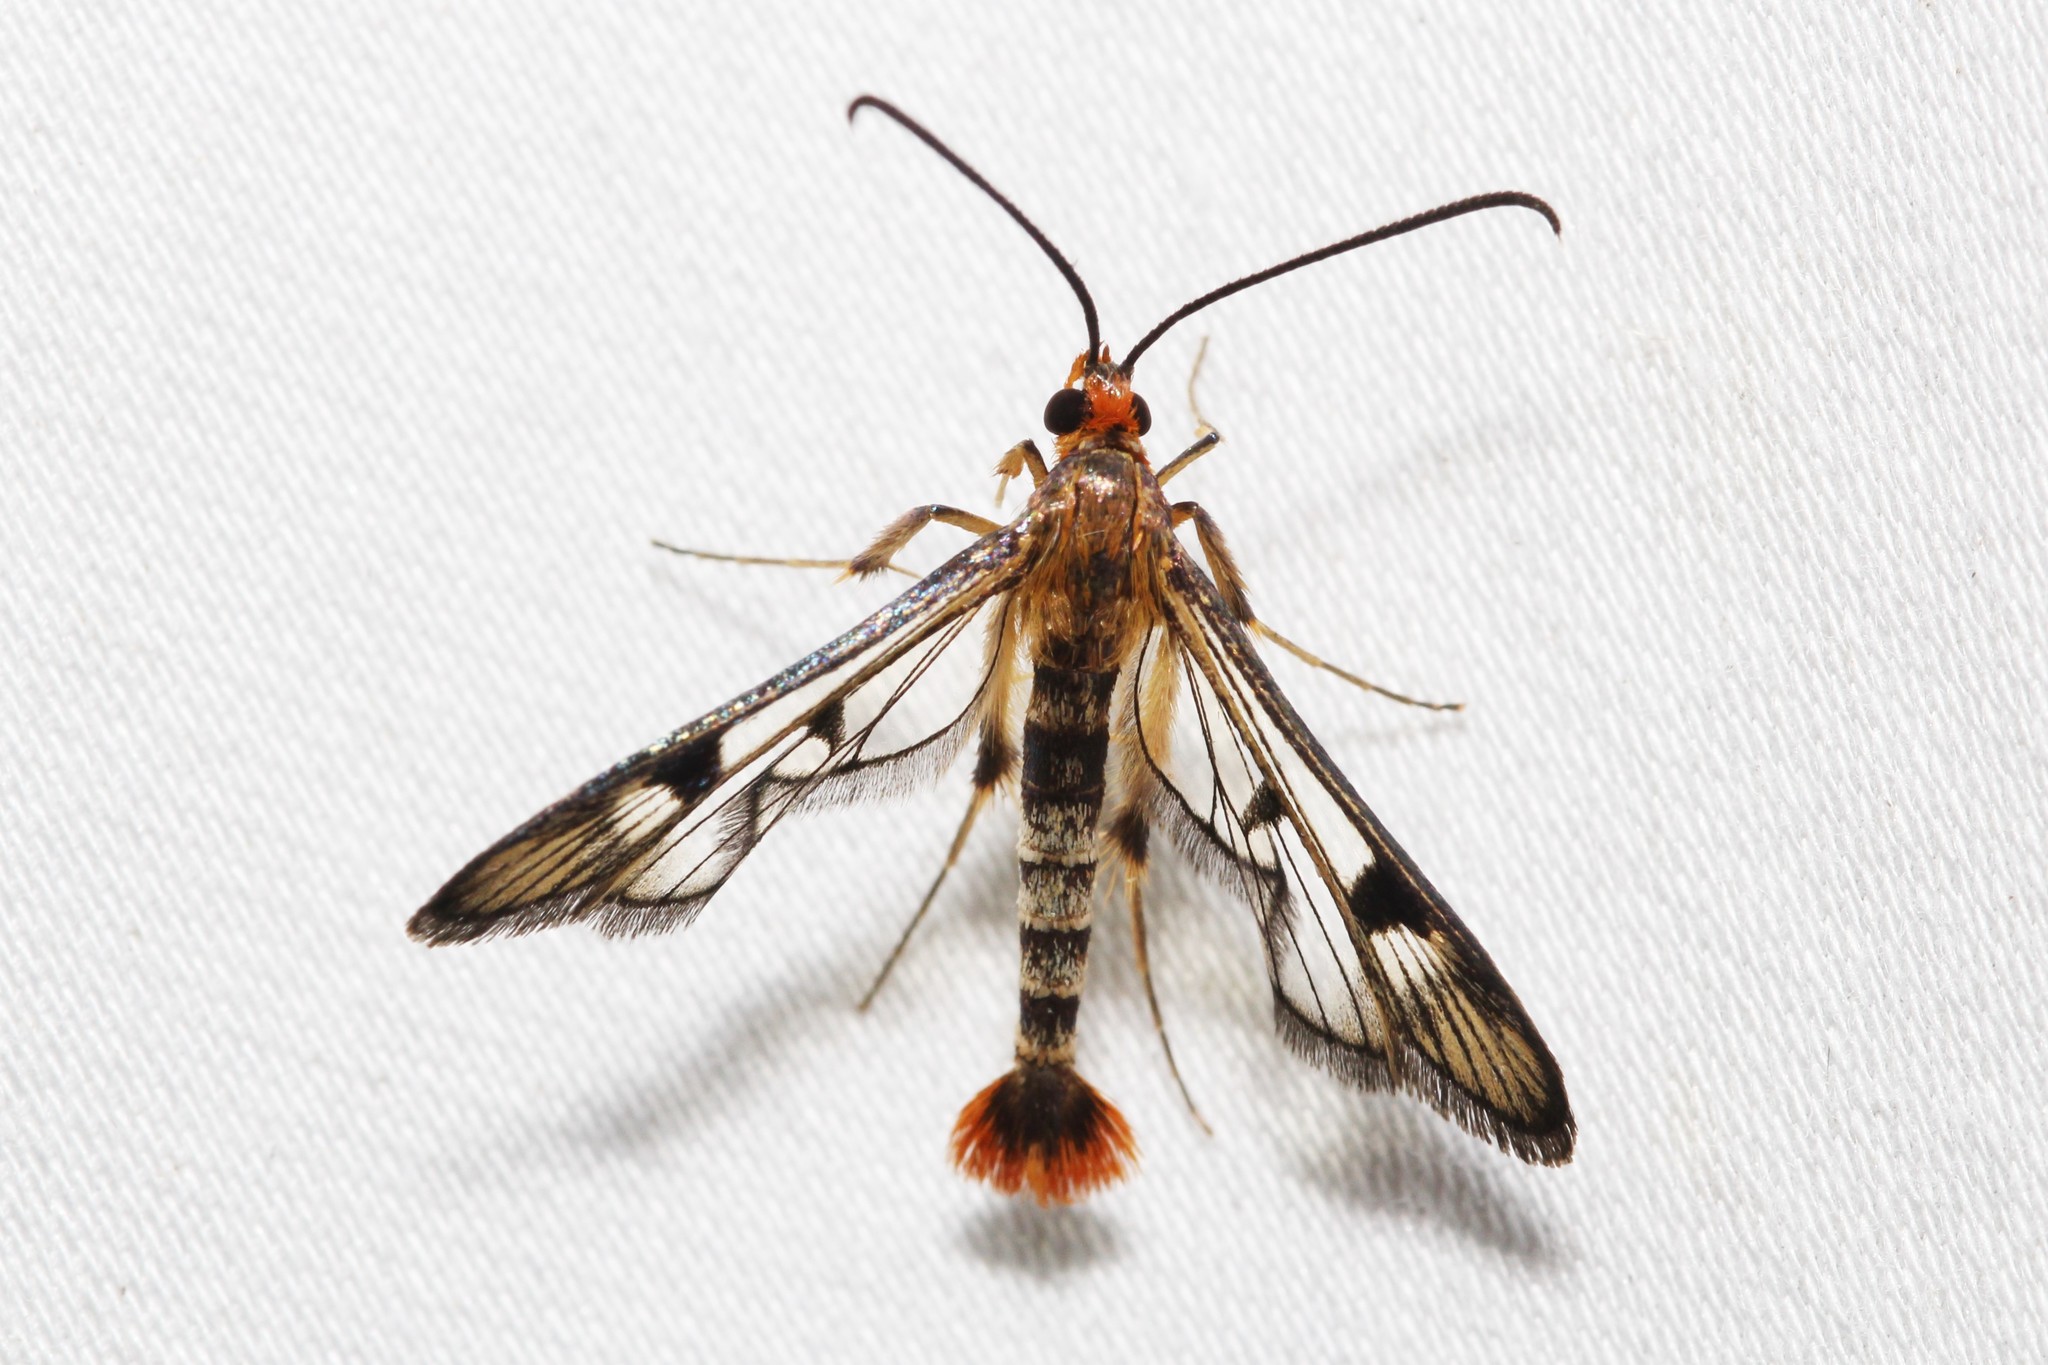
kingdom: Animalia
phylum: Arthropoda
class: Insecta
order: Lepidoptera
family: Sesiidae
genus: Synanthedon
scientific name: Synanthedon acerni
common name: Maple callus borer moth
